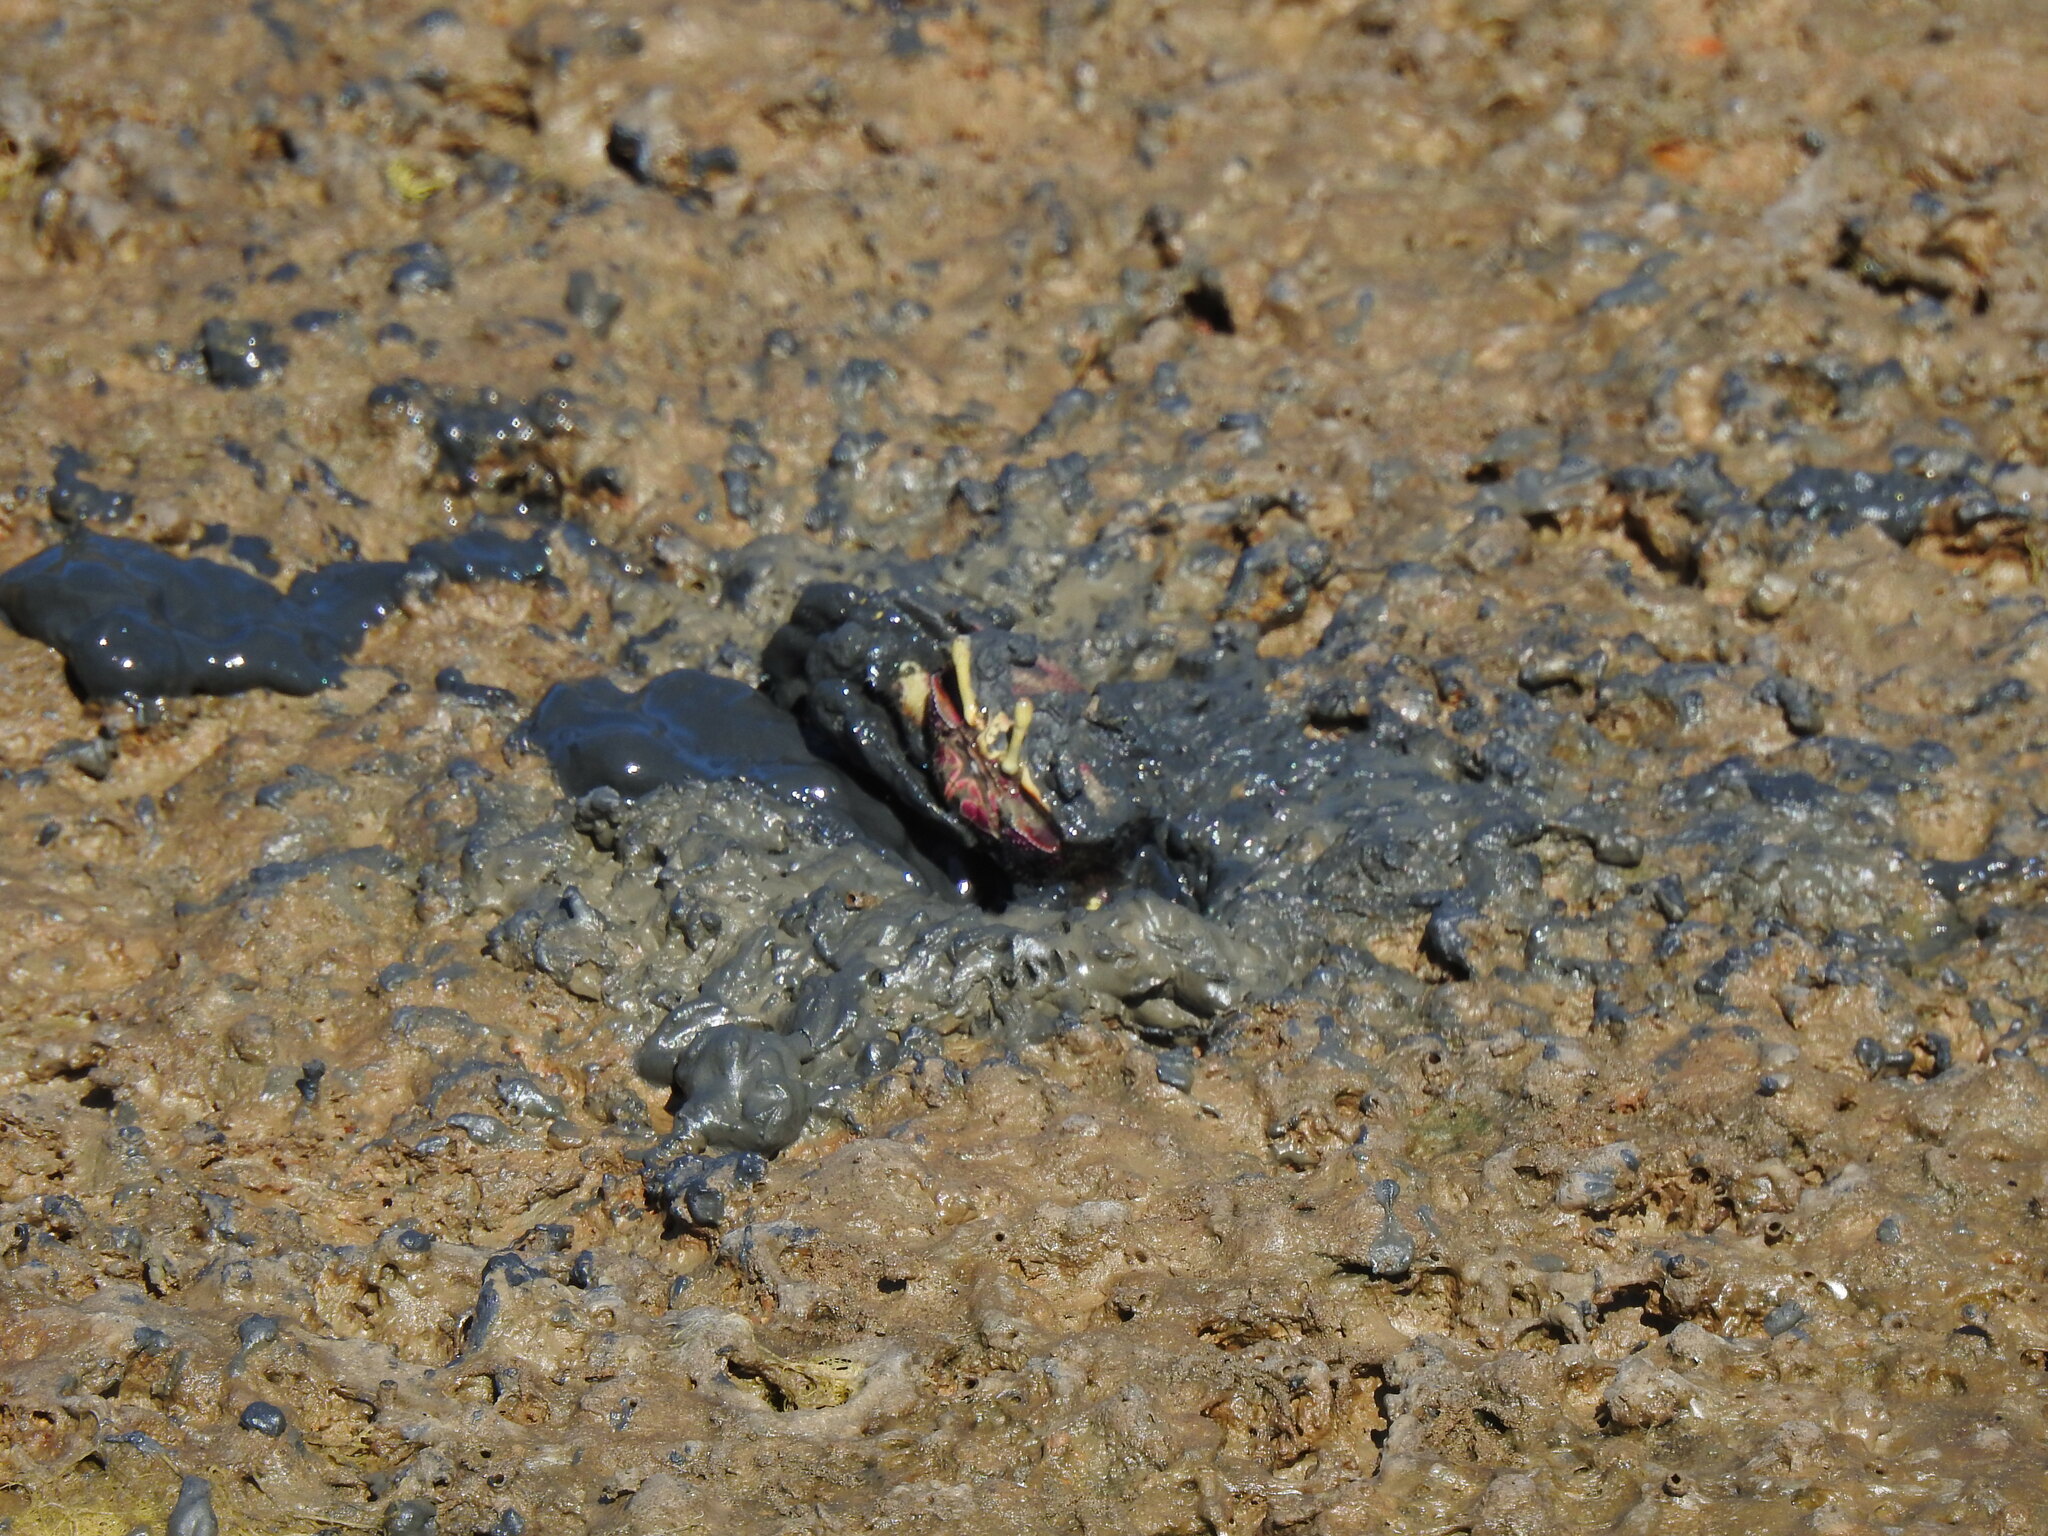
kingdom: Animalia
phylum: Arthropoda
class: Malacostraca
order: Decapoda
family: Ocypodidae
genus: Afruca
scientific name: Afruca tangeri
